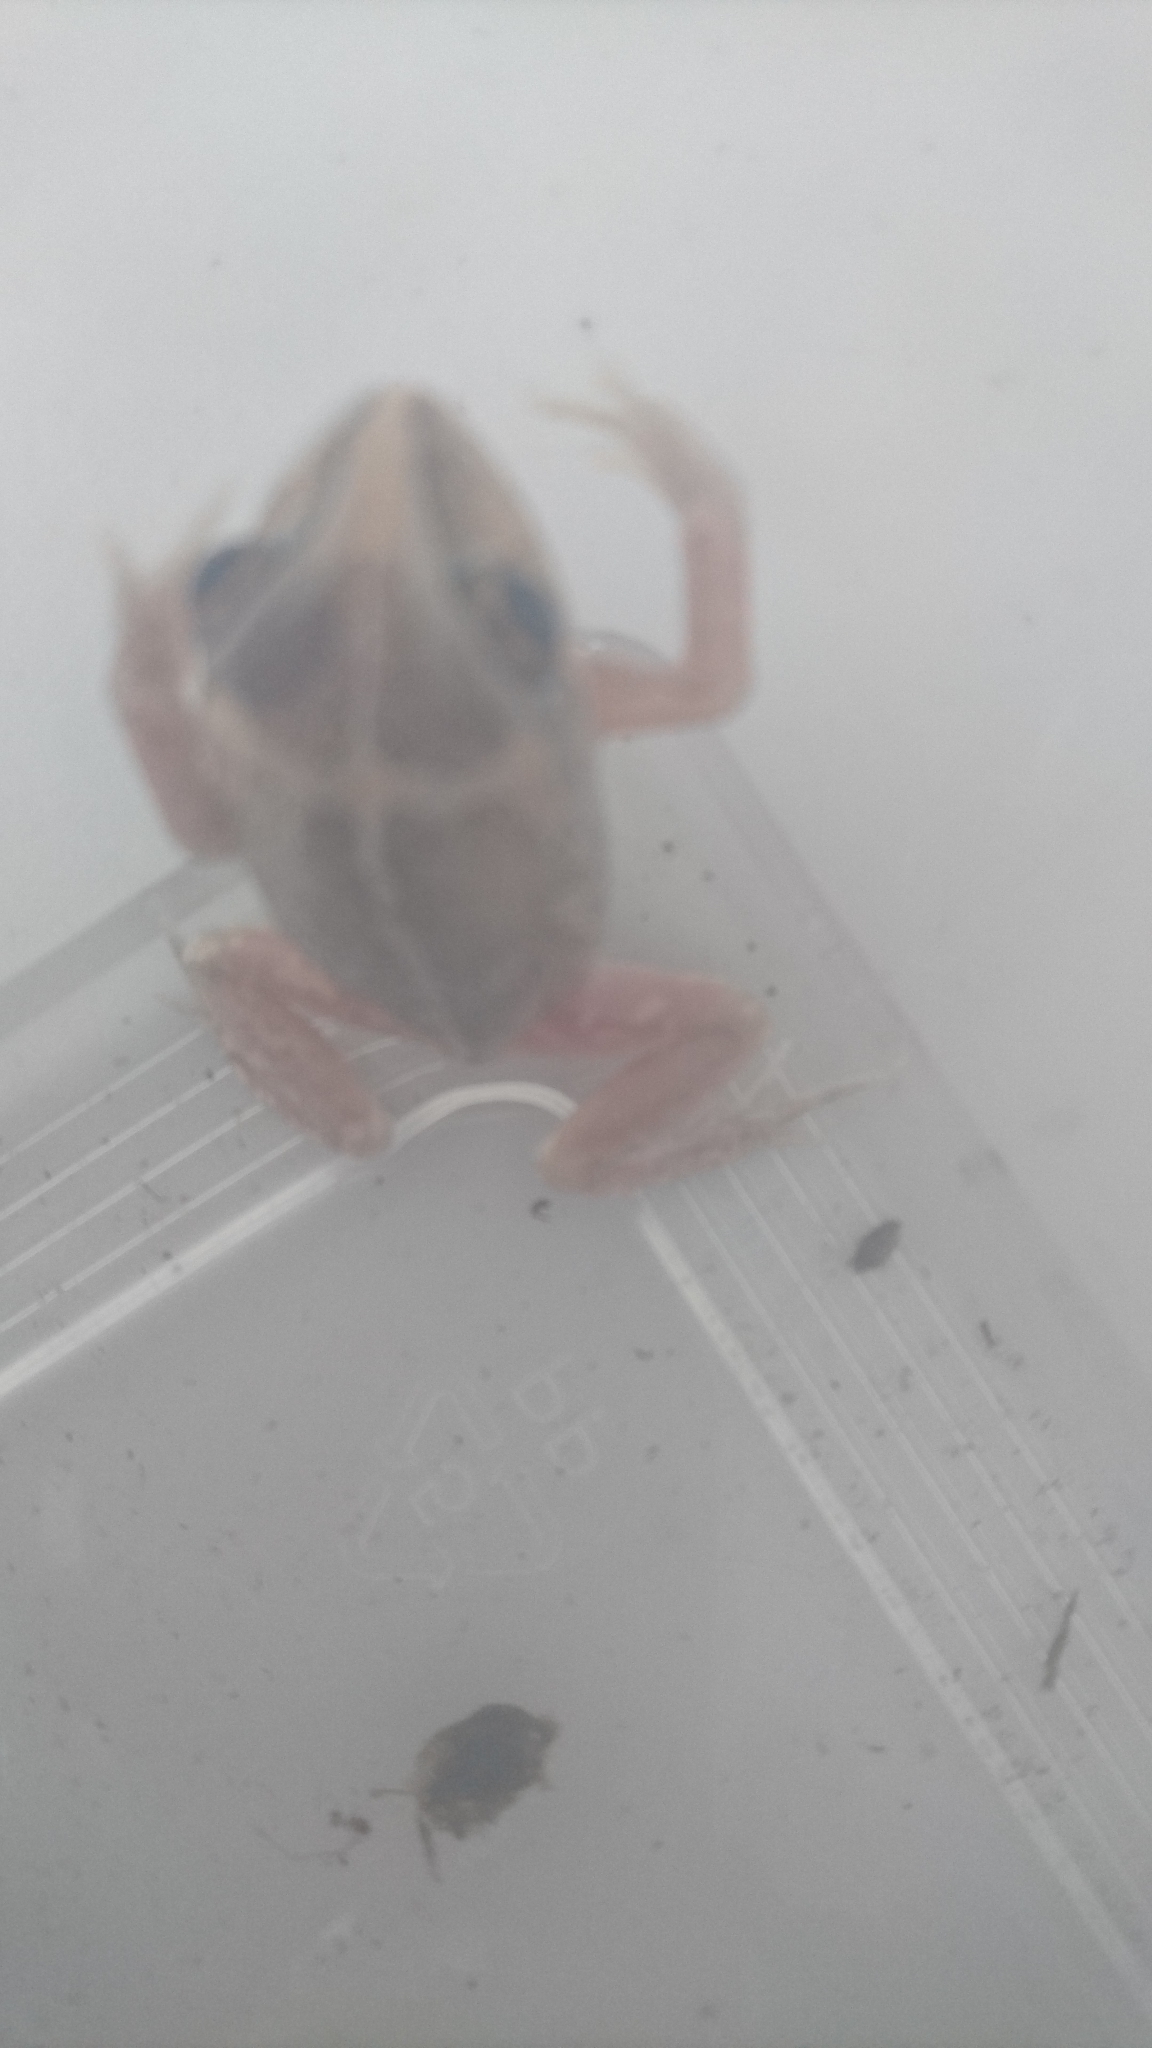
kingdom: Animalia
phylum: Chordata
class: Amphibia
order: Anura
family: Pelodryadidae
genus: Ranoidea
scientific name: Ranoidea longipes
